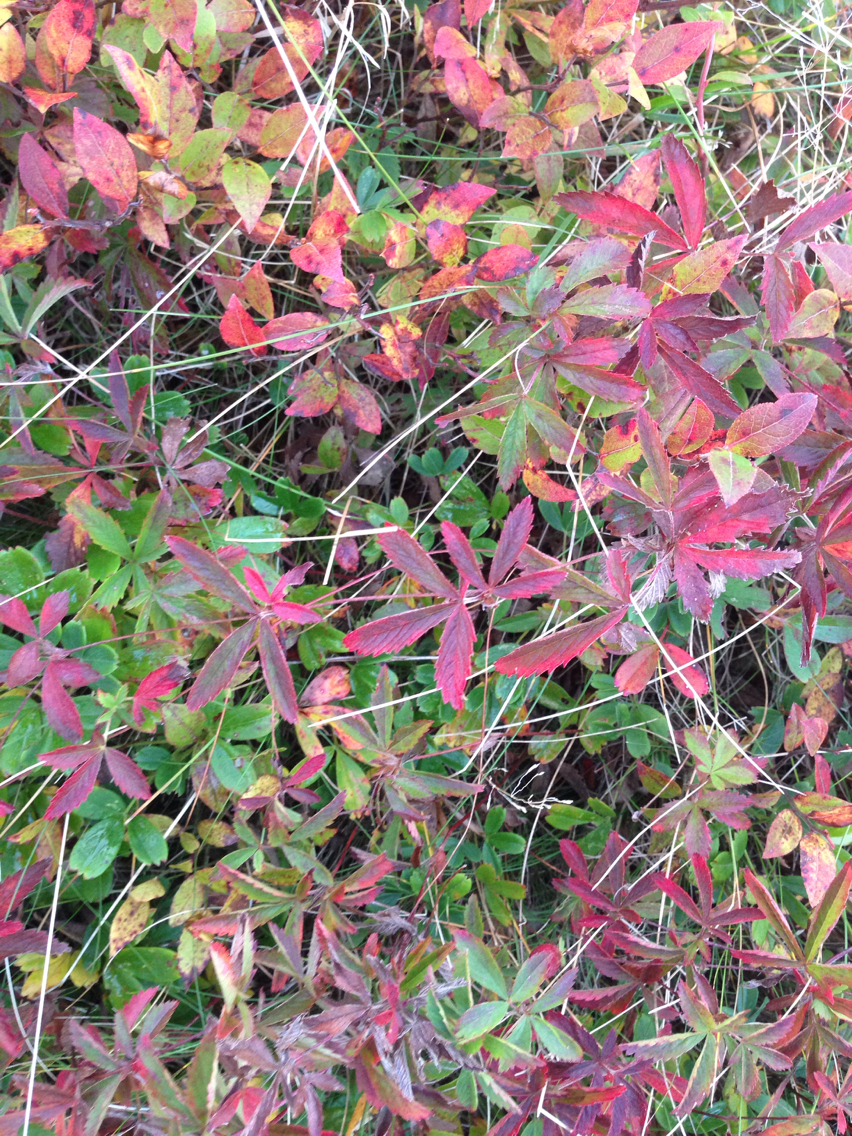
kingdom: Plantae
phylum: Tracheophyta
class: Magnoliopsida
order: Rosales
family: Rosaceae
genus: Sibbaldia
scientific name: Sibbaldia tridentata
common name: Three-toothed cinquefoil
